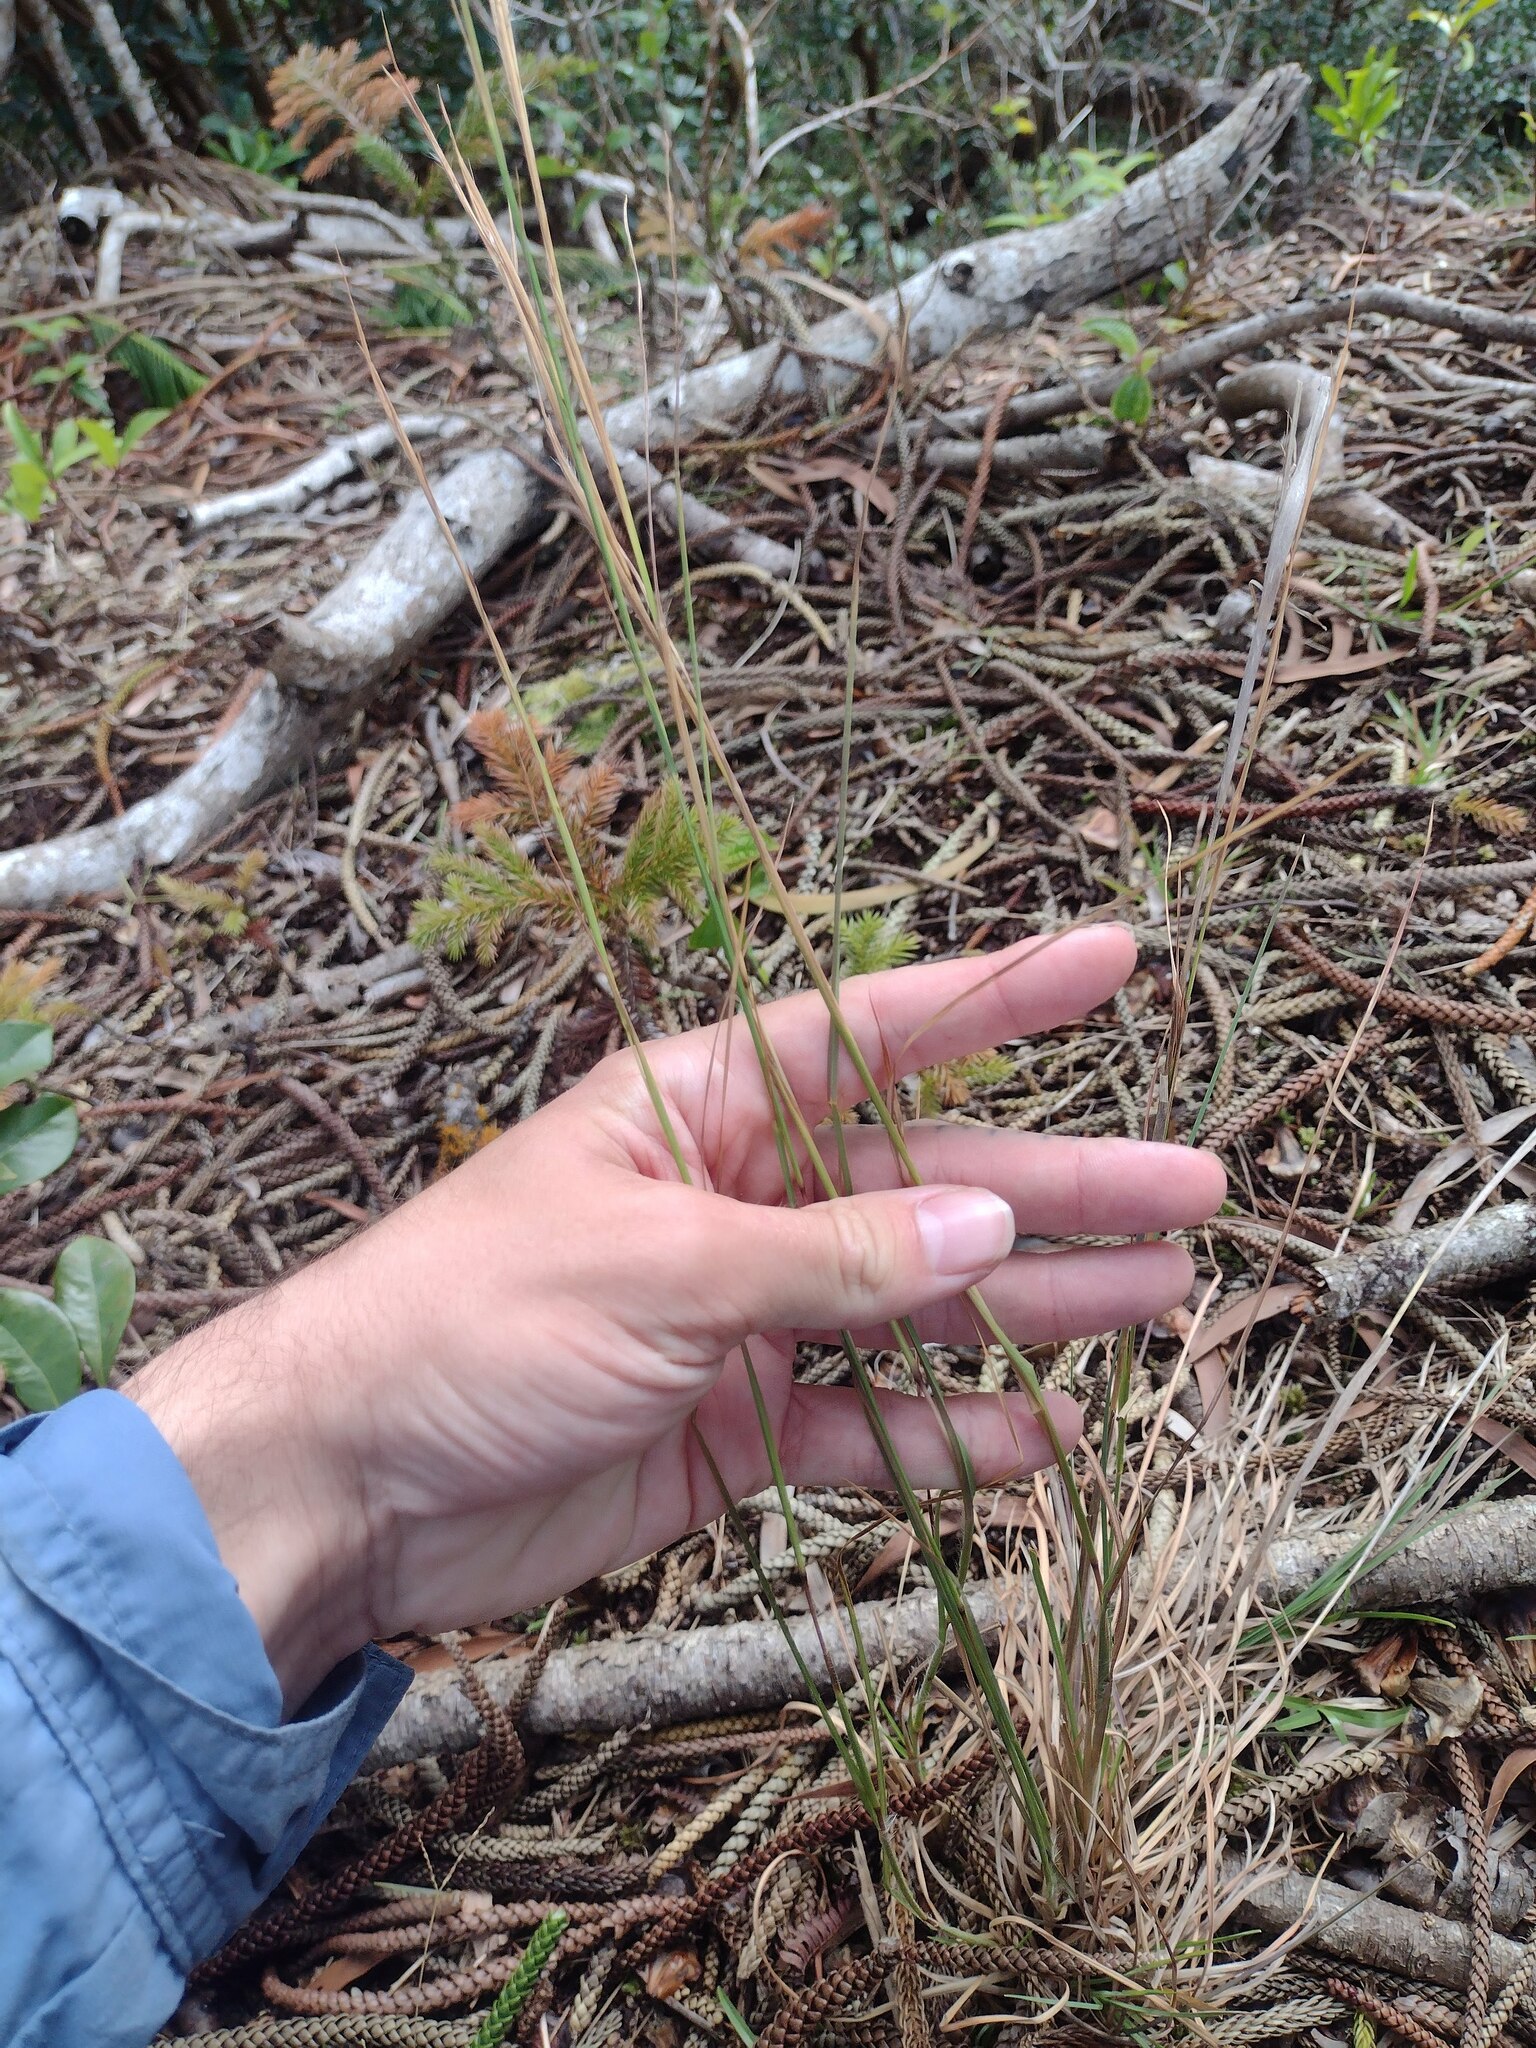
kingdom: Plantae
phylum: Tracheophyta
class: Liliopsida
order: Poales
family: Poaceae
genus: Andropogon
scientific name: Andropogon virginicus
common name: Broomsedge bluestem
